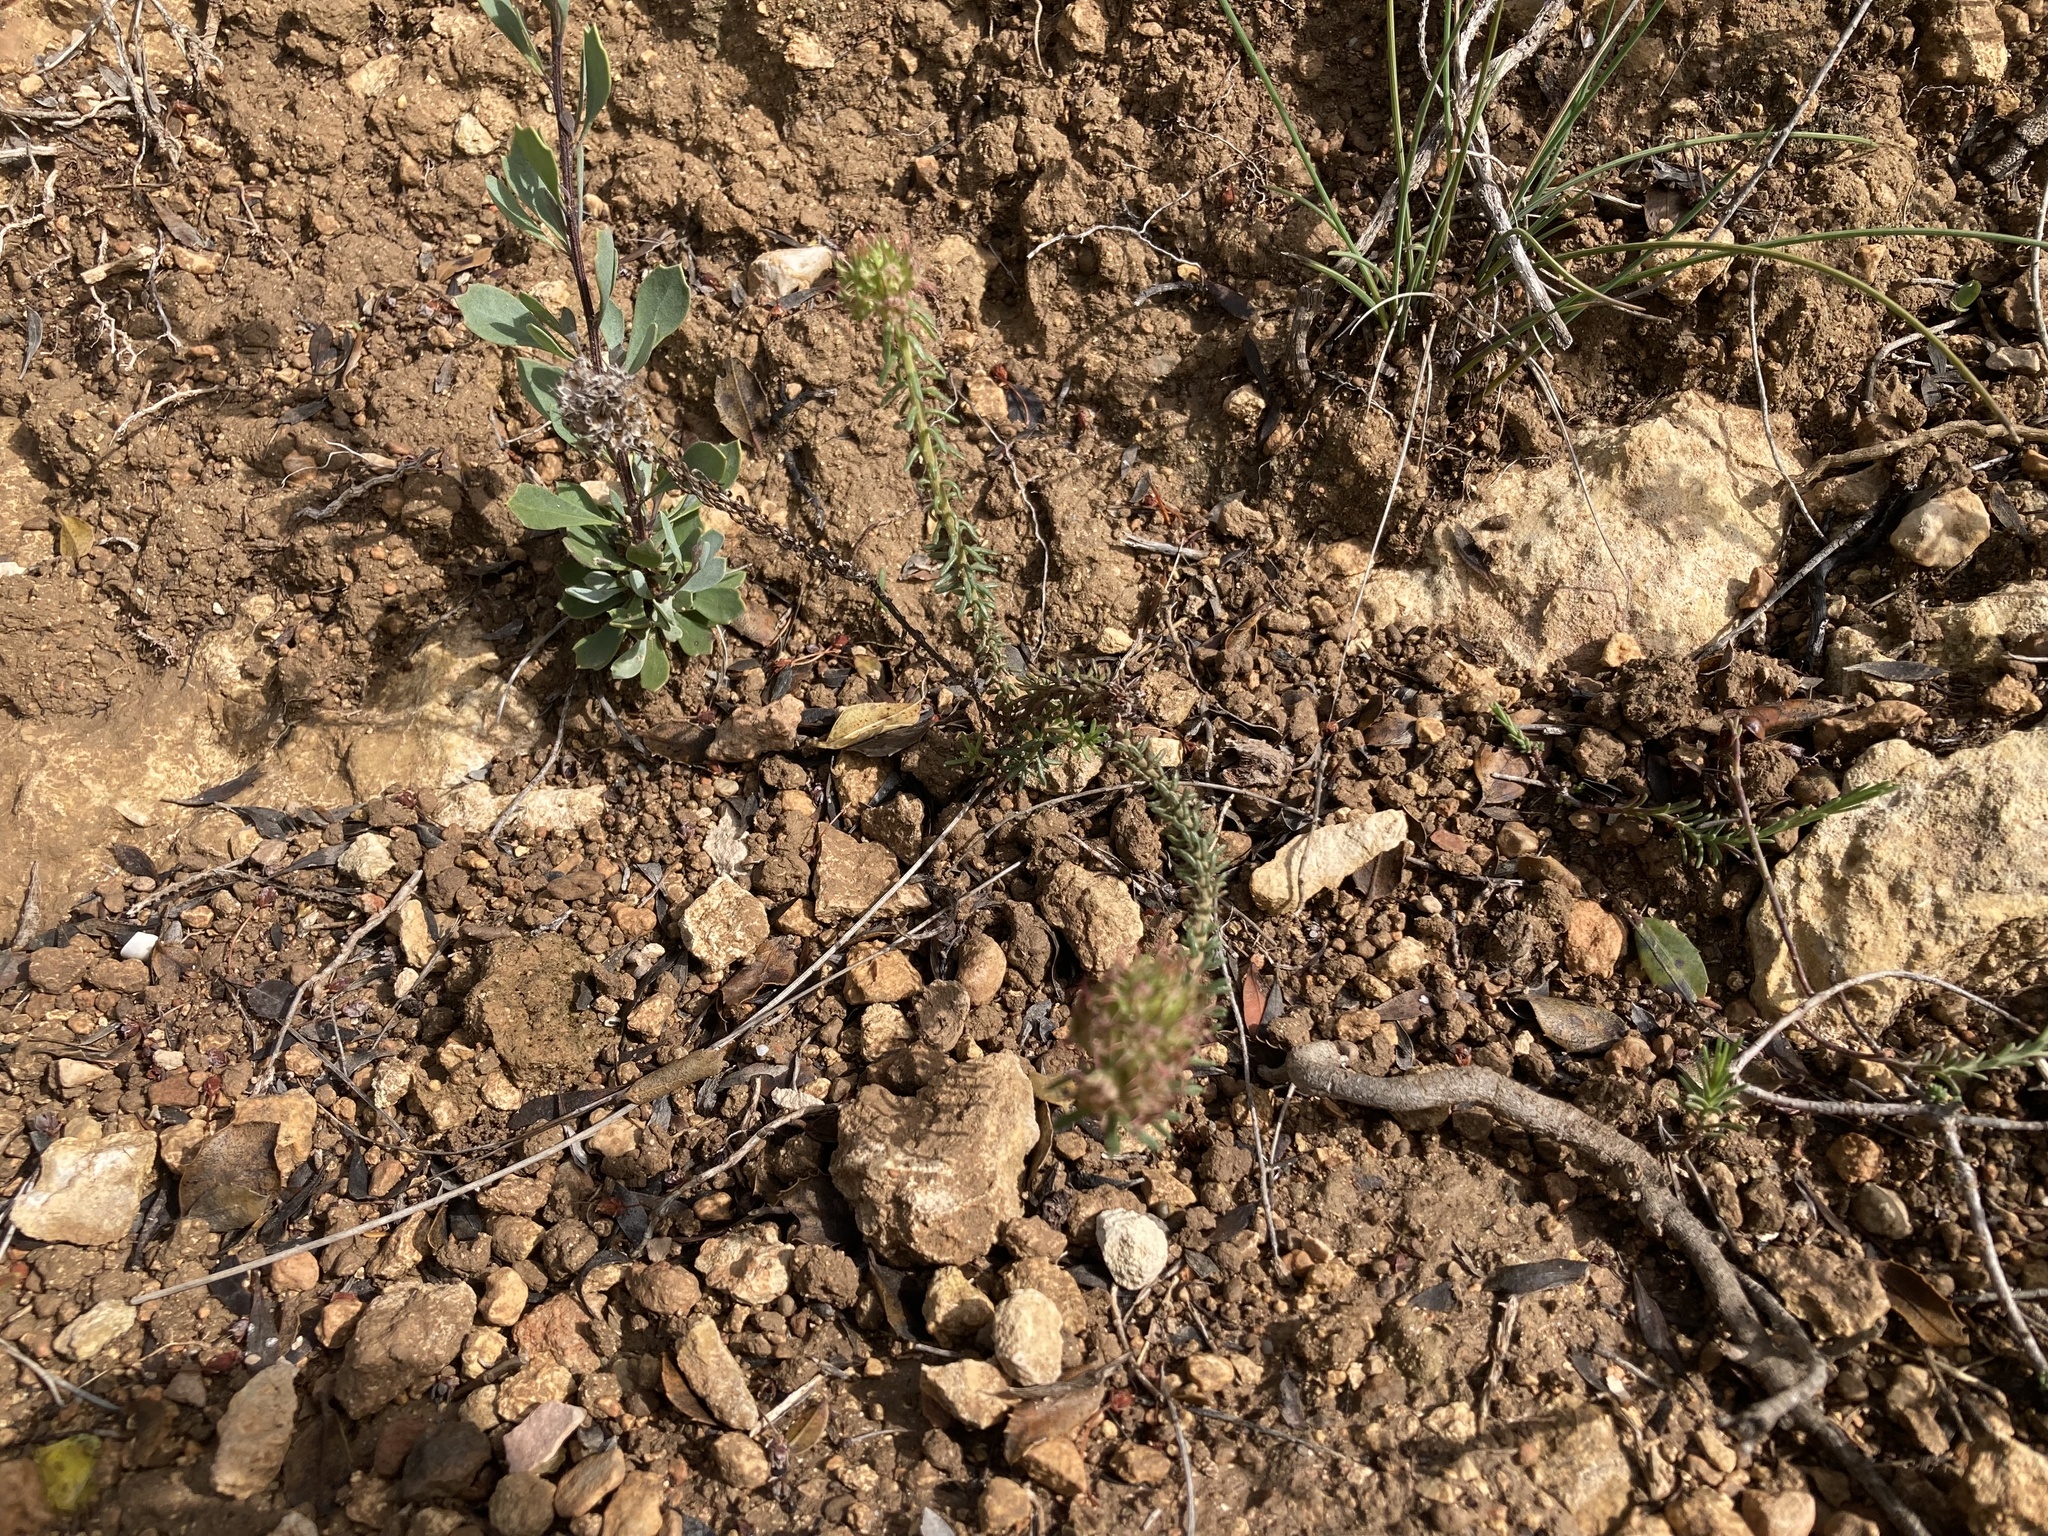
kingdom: Plantae
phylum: Tracheophyta
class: Magnoliopsida
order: Ericales
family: Primulaceae
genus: Coris
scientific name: Coris monspeliensis
